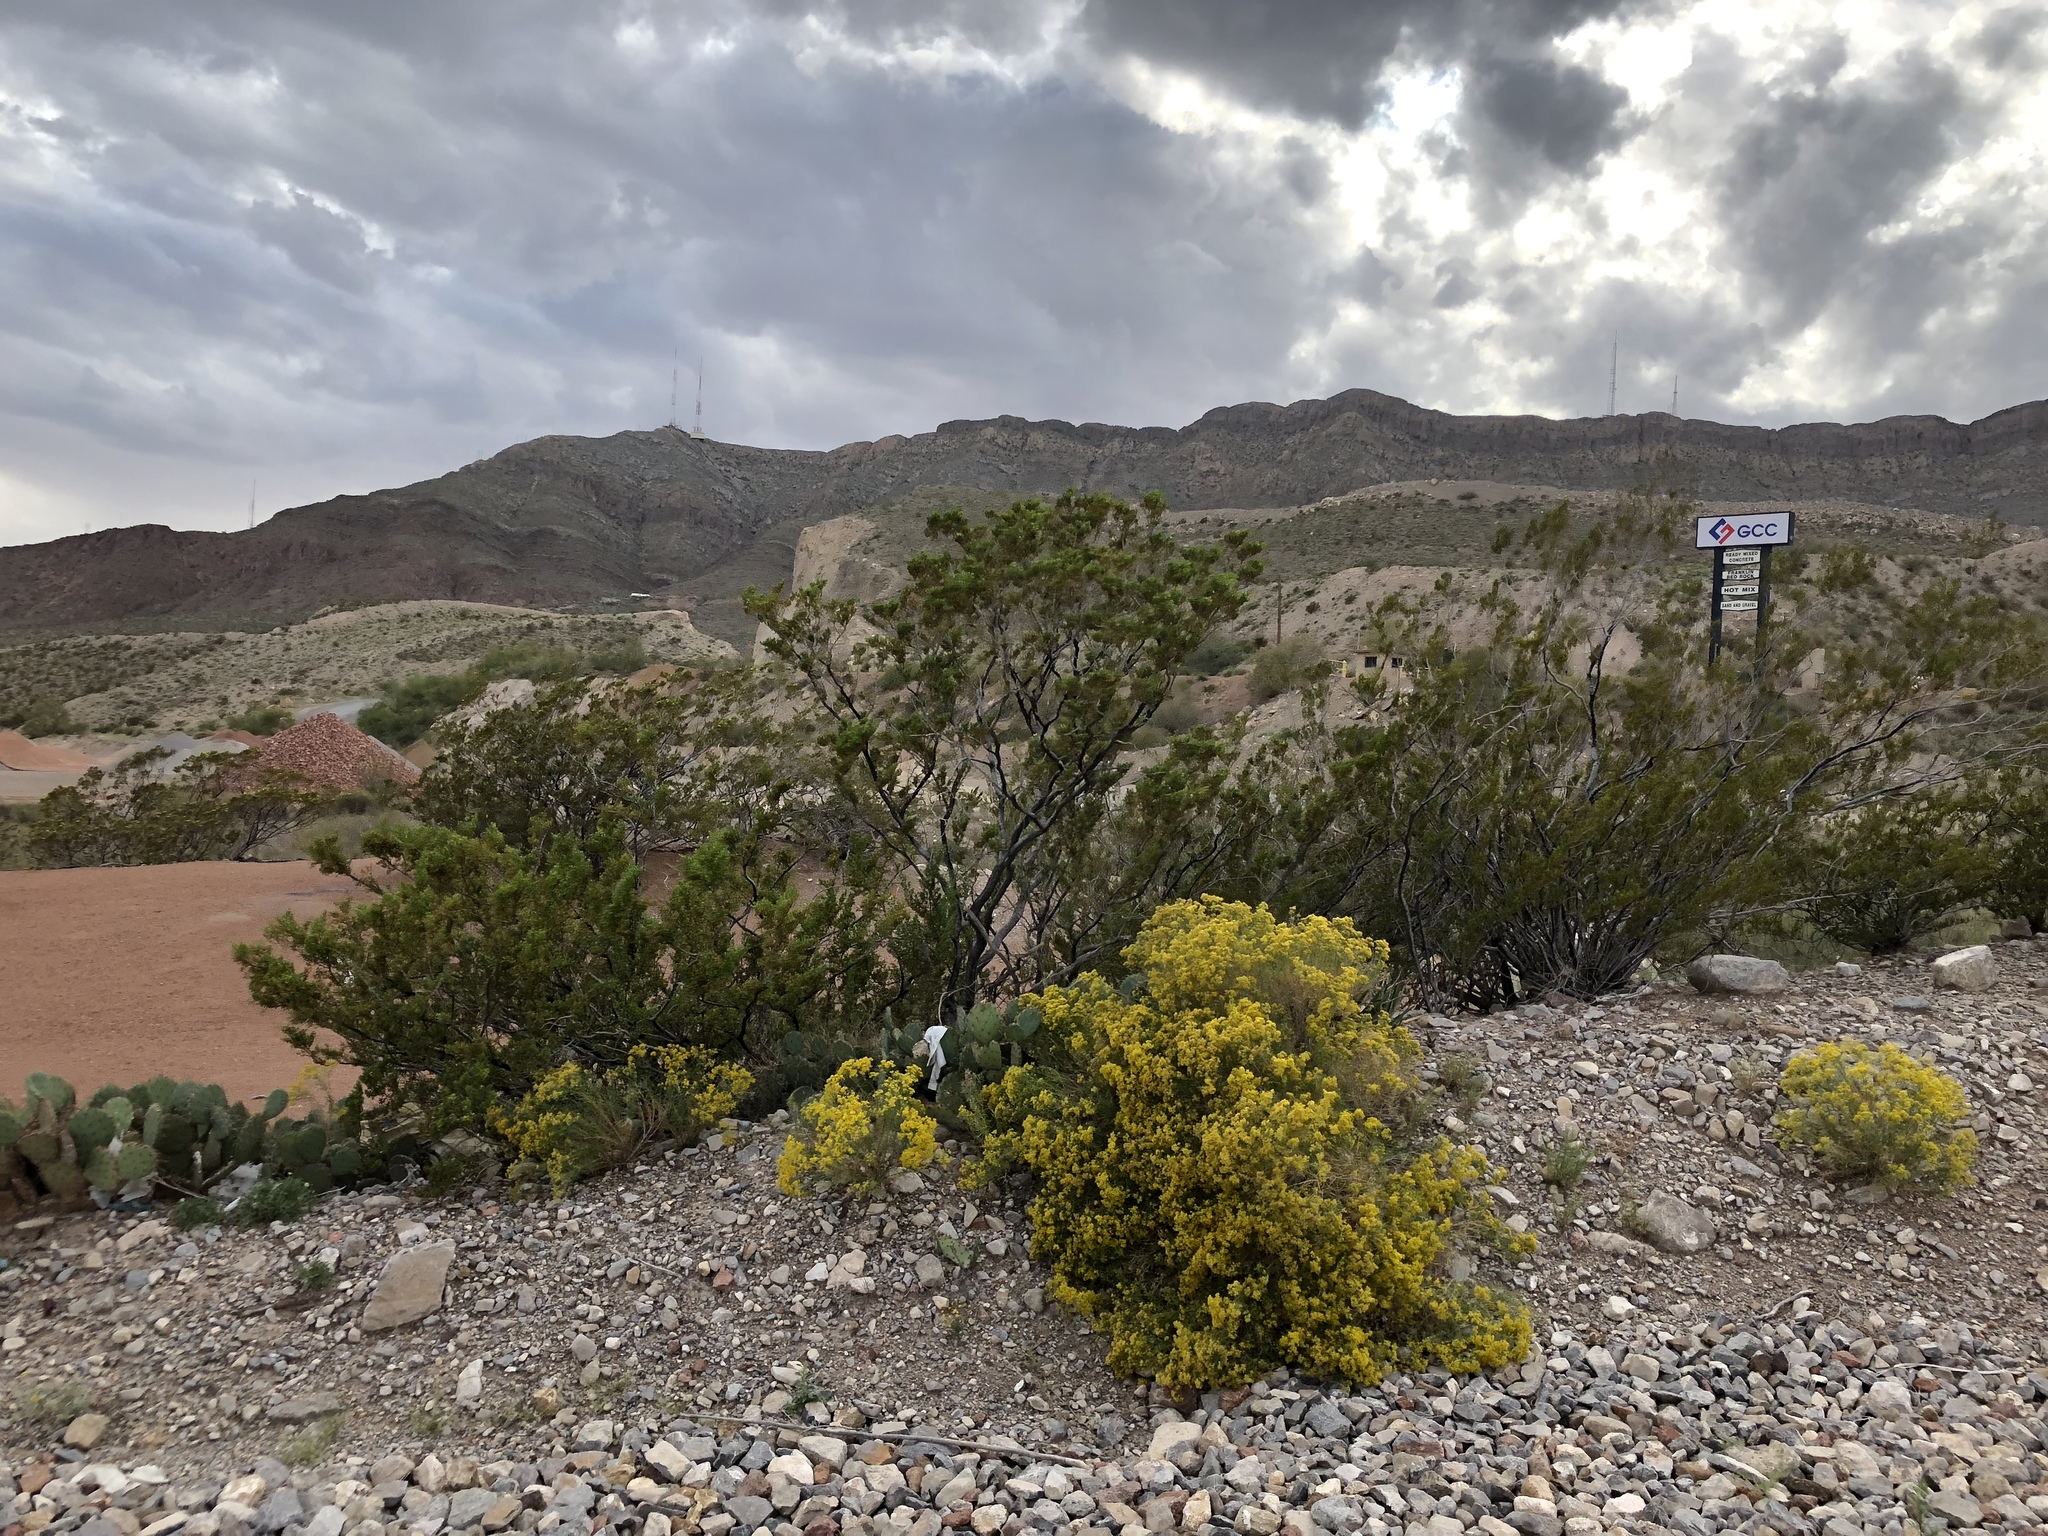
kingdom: Plantae
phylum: Tracheophyta
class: Magnoliopsida
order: Zygophyllales
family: Zygophyllaceae
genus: Larrea
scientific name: Larrea tridentata
